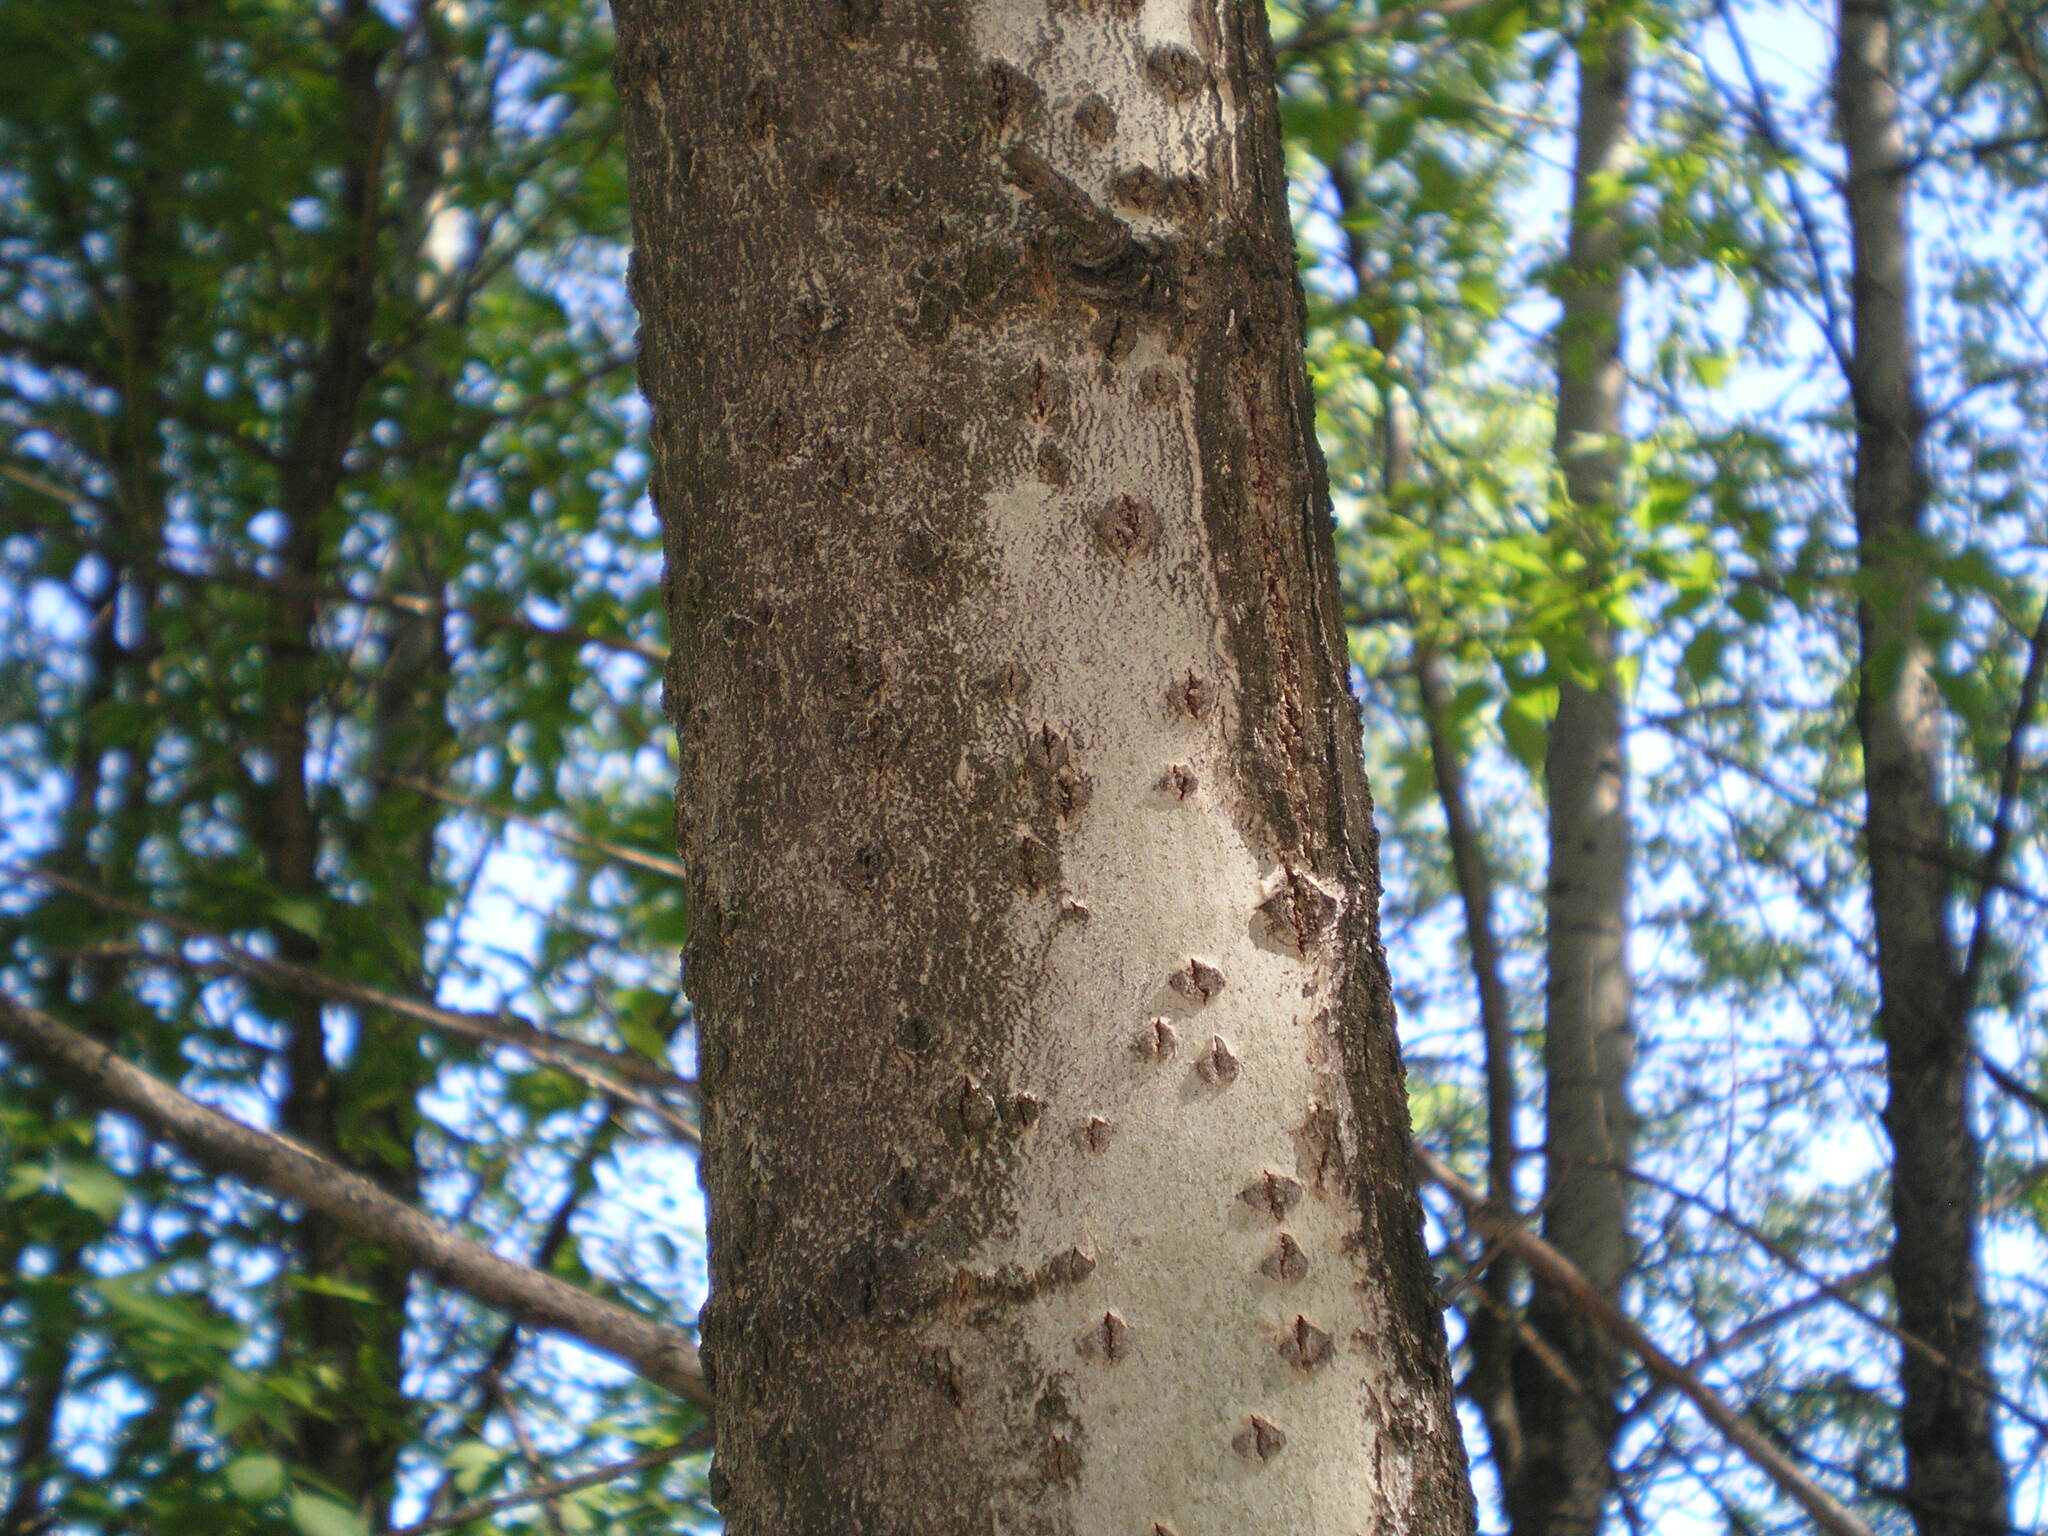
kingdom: Plantae
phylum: Tracheophyta
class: Magnoliopsida
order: Malpighiales
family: Salicaceae
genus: Populus
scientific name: Populus alba
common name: White poplar
